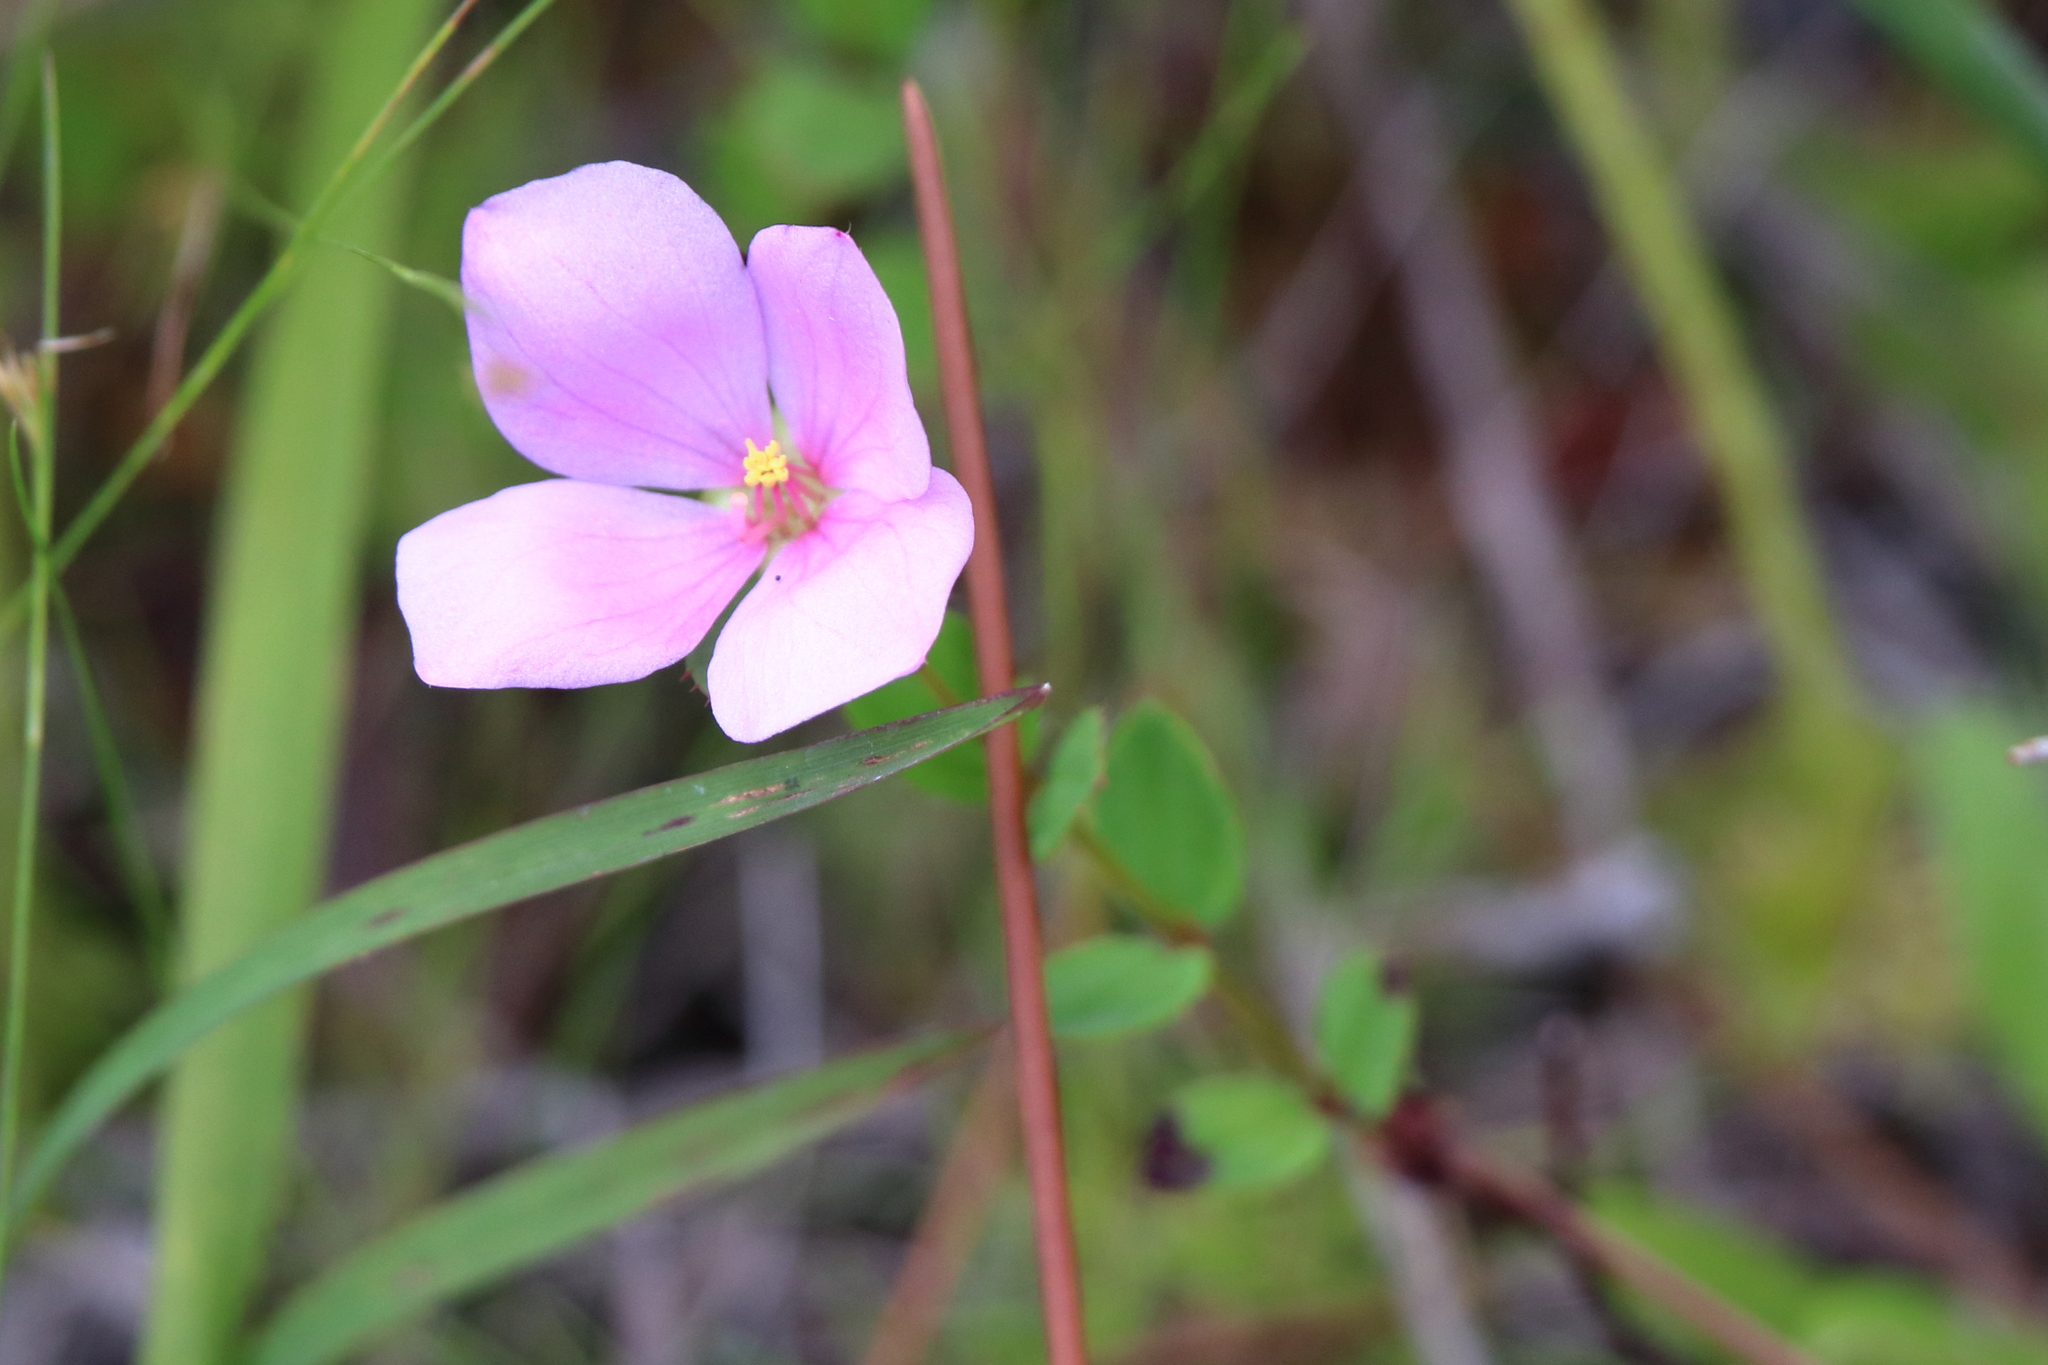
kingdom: Plantae
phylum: Tracheophyta
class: Magnoliopsida
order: Myrtales
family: Melastomataceae
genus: Rhexia
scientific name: Rhexia petiolata
